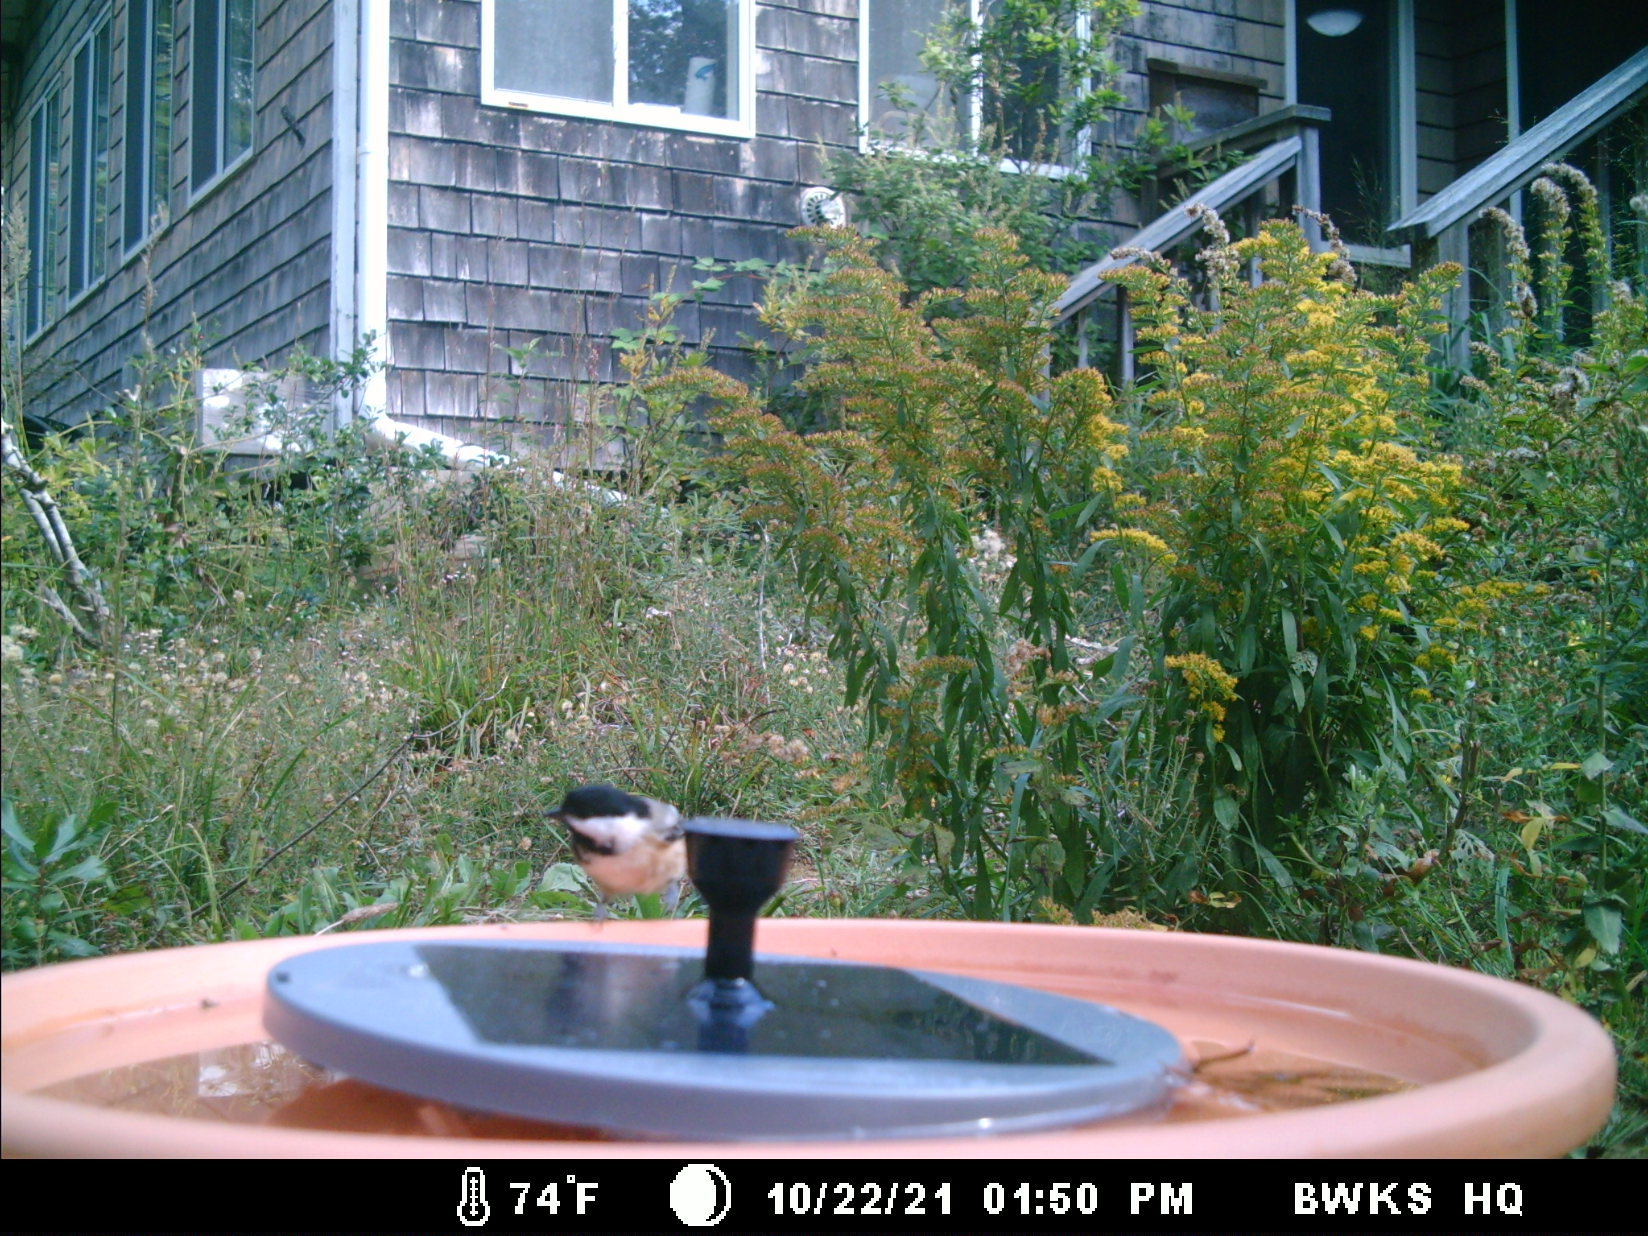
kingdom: Animalia
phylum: Chordata
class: Aves
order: Passeriformes
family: Paridae
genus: Poecile
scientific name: Poecile atricapillus
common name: Black-capped chickadee
